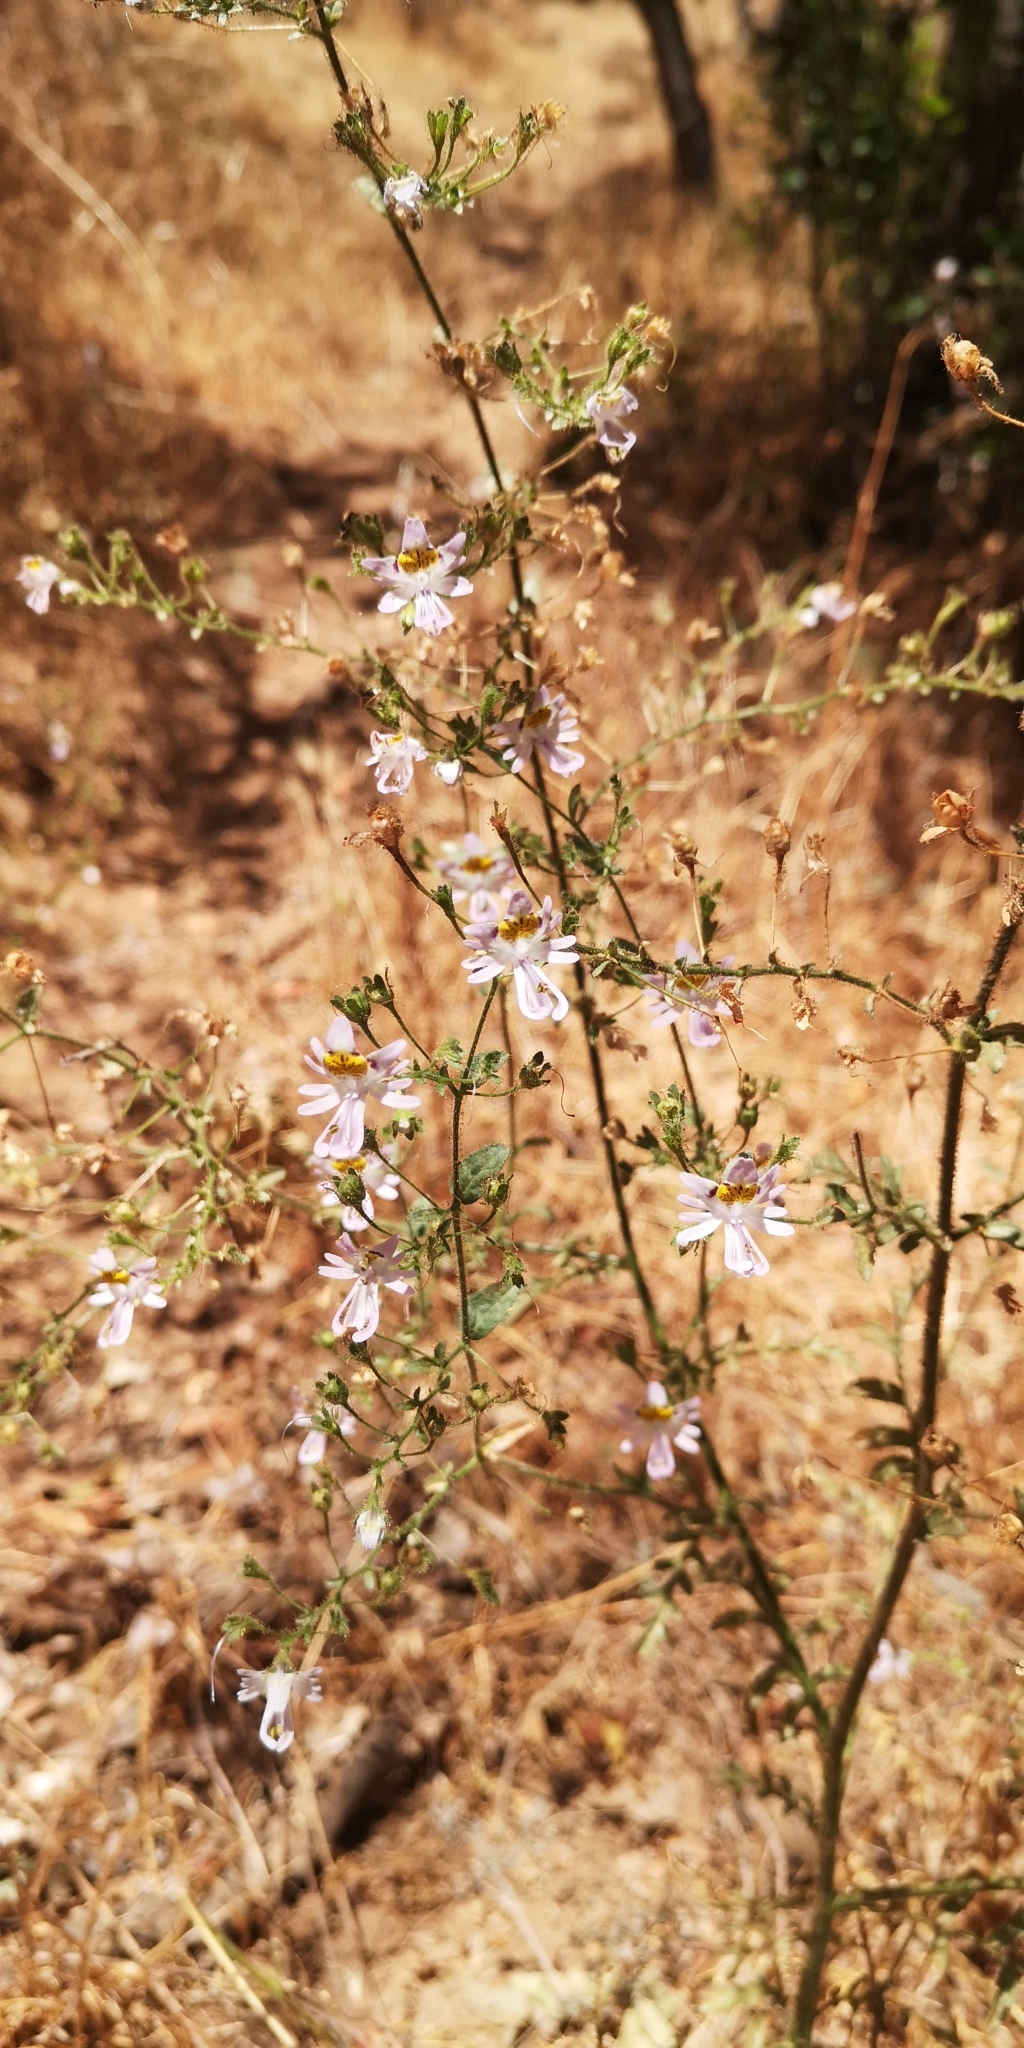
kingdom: Plantae
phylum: Tracheophyta
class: Magnoliopsida
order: Solanales
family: Solanaceae
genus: Schizanthus
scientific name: Schizanthus pinnatus
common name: Poor-man's-orchid
